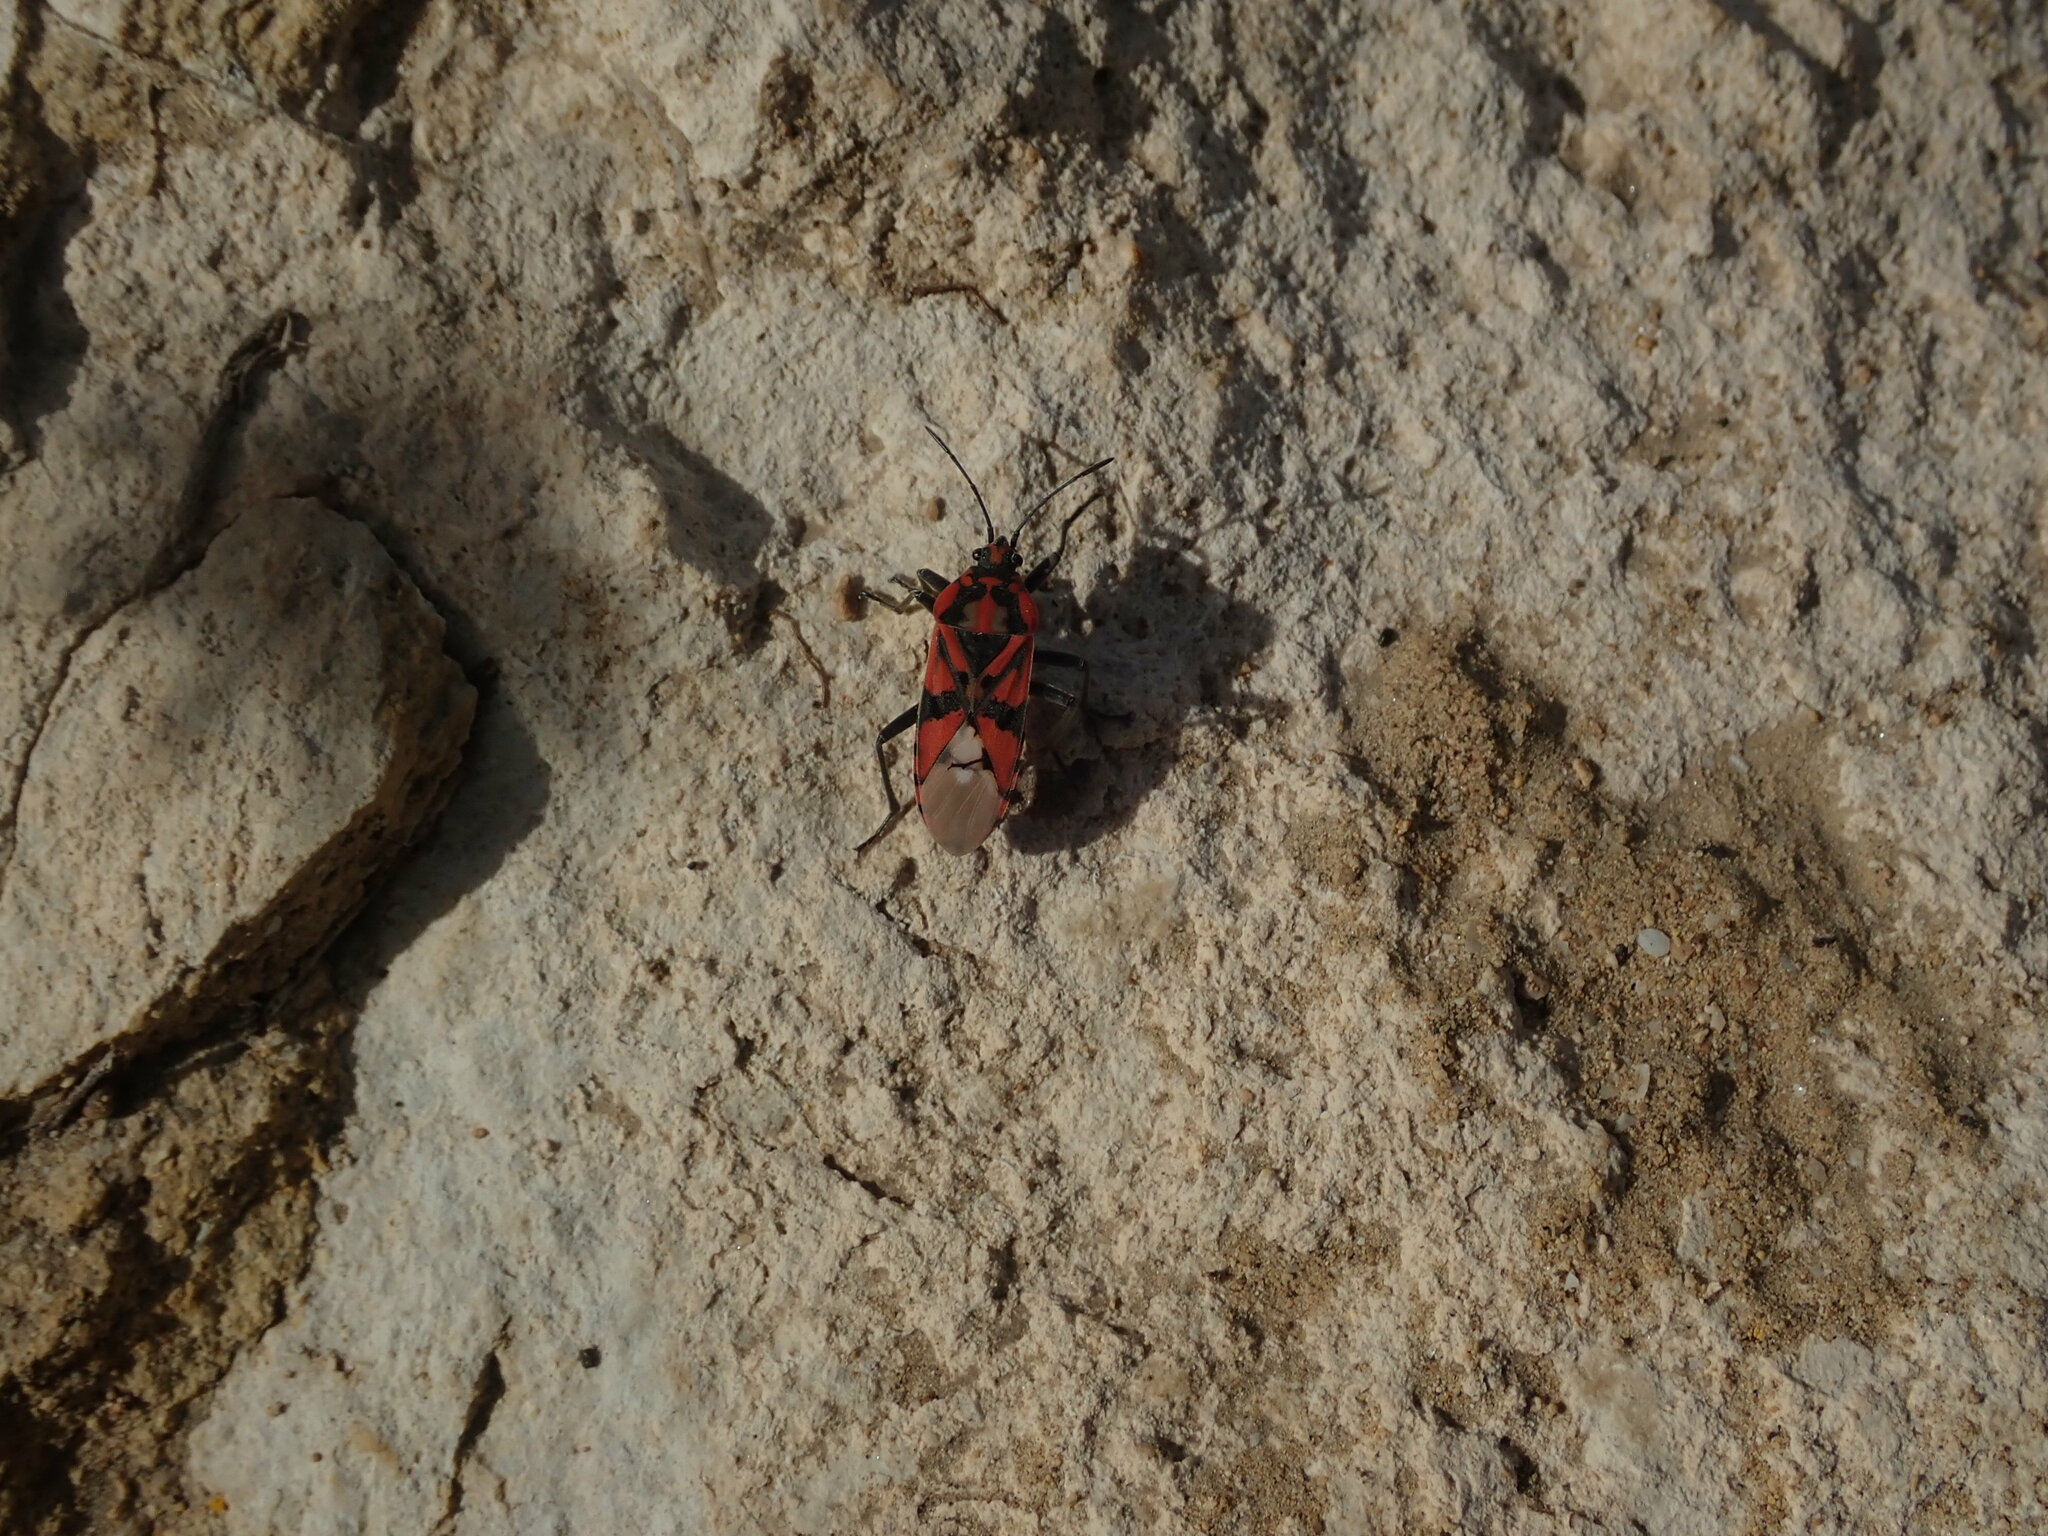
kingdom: Animalia
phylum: Arthropoda
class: Insecta
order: Hemiptera
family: Lygaeidae
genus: Spilostethus
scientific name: Spilostethus pandurus
